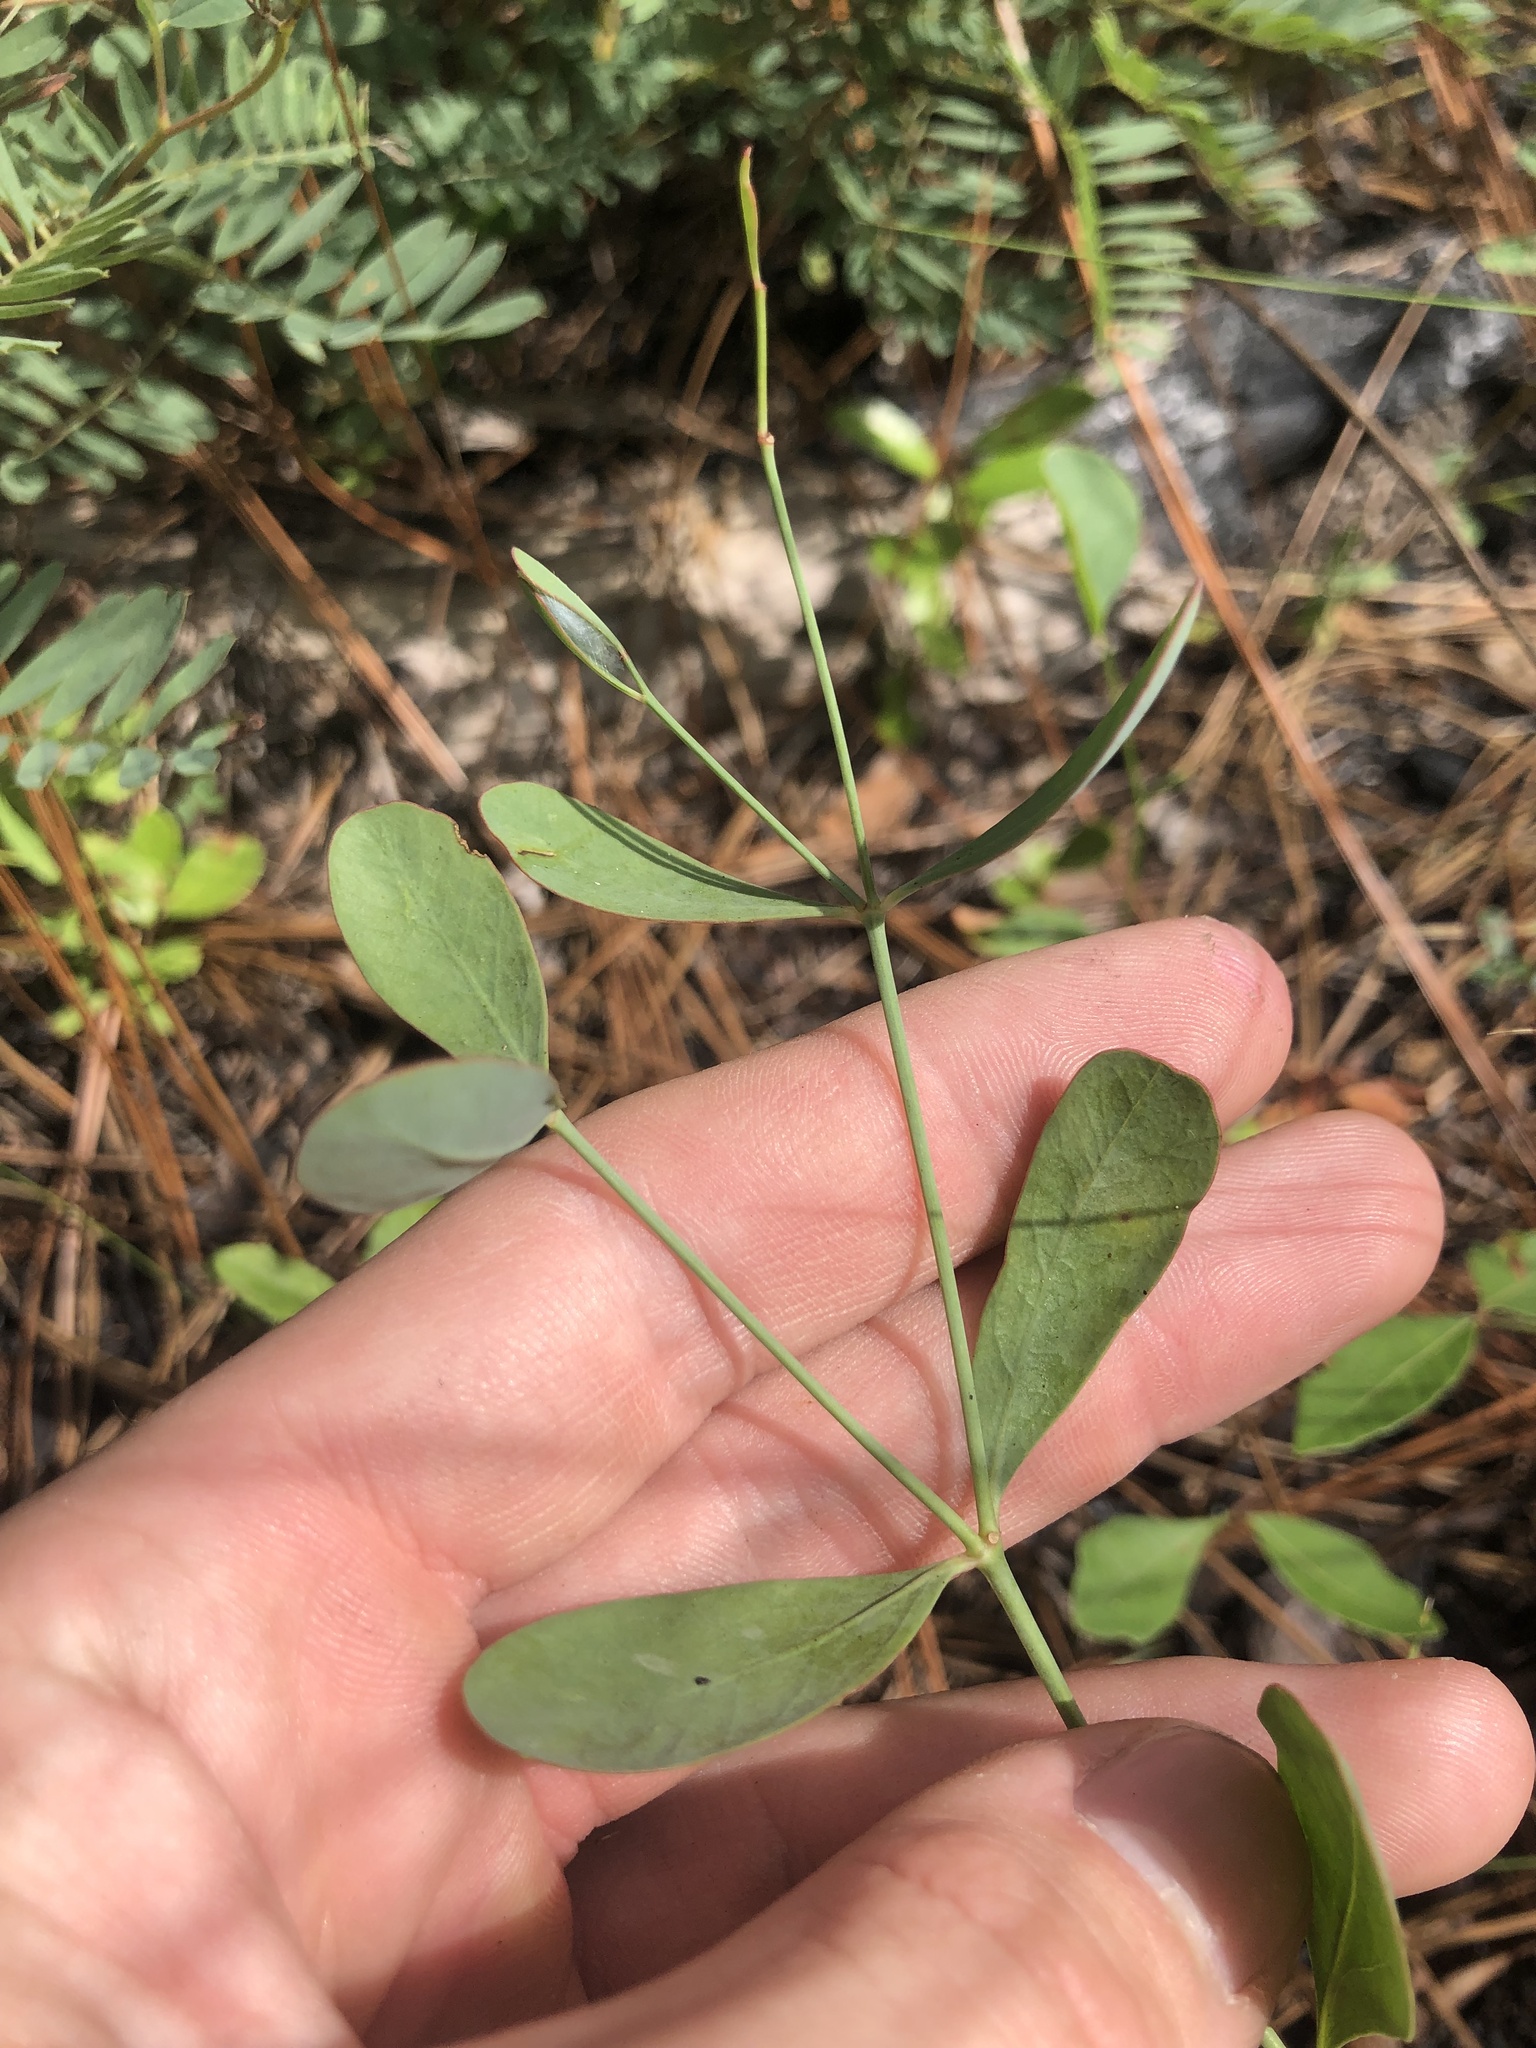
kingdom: Plantae
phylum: Tracheophyta
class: Magnoliopsida
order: Malpighiales
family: Euphorbiaceae
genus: Euphorbia
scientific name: Euphorbia exserta
